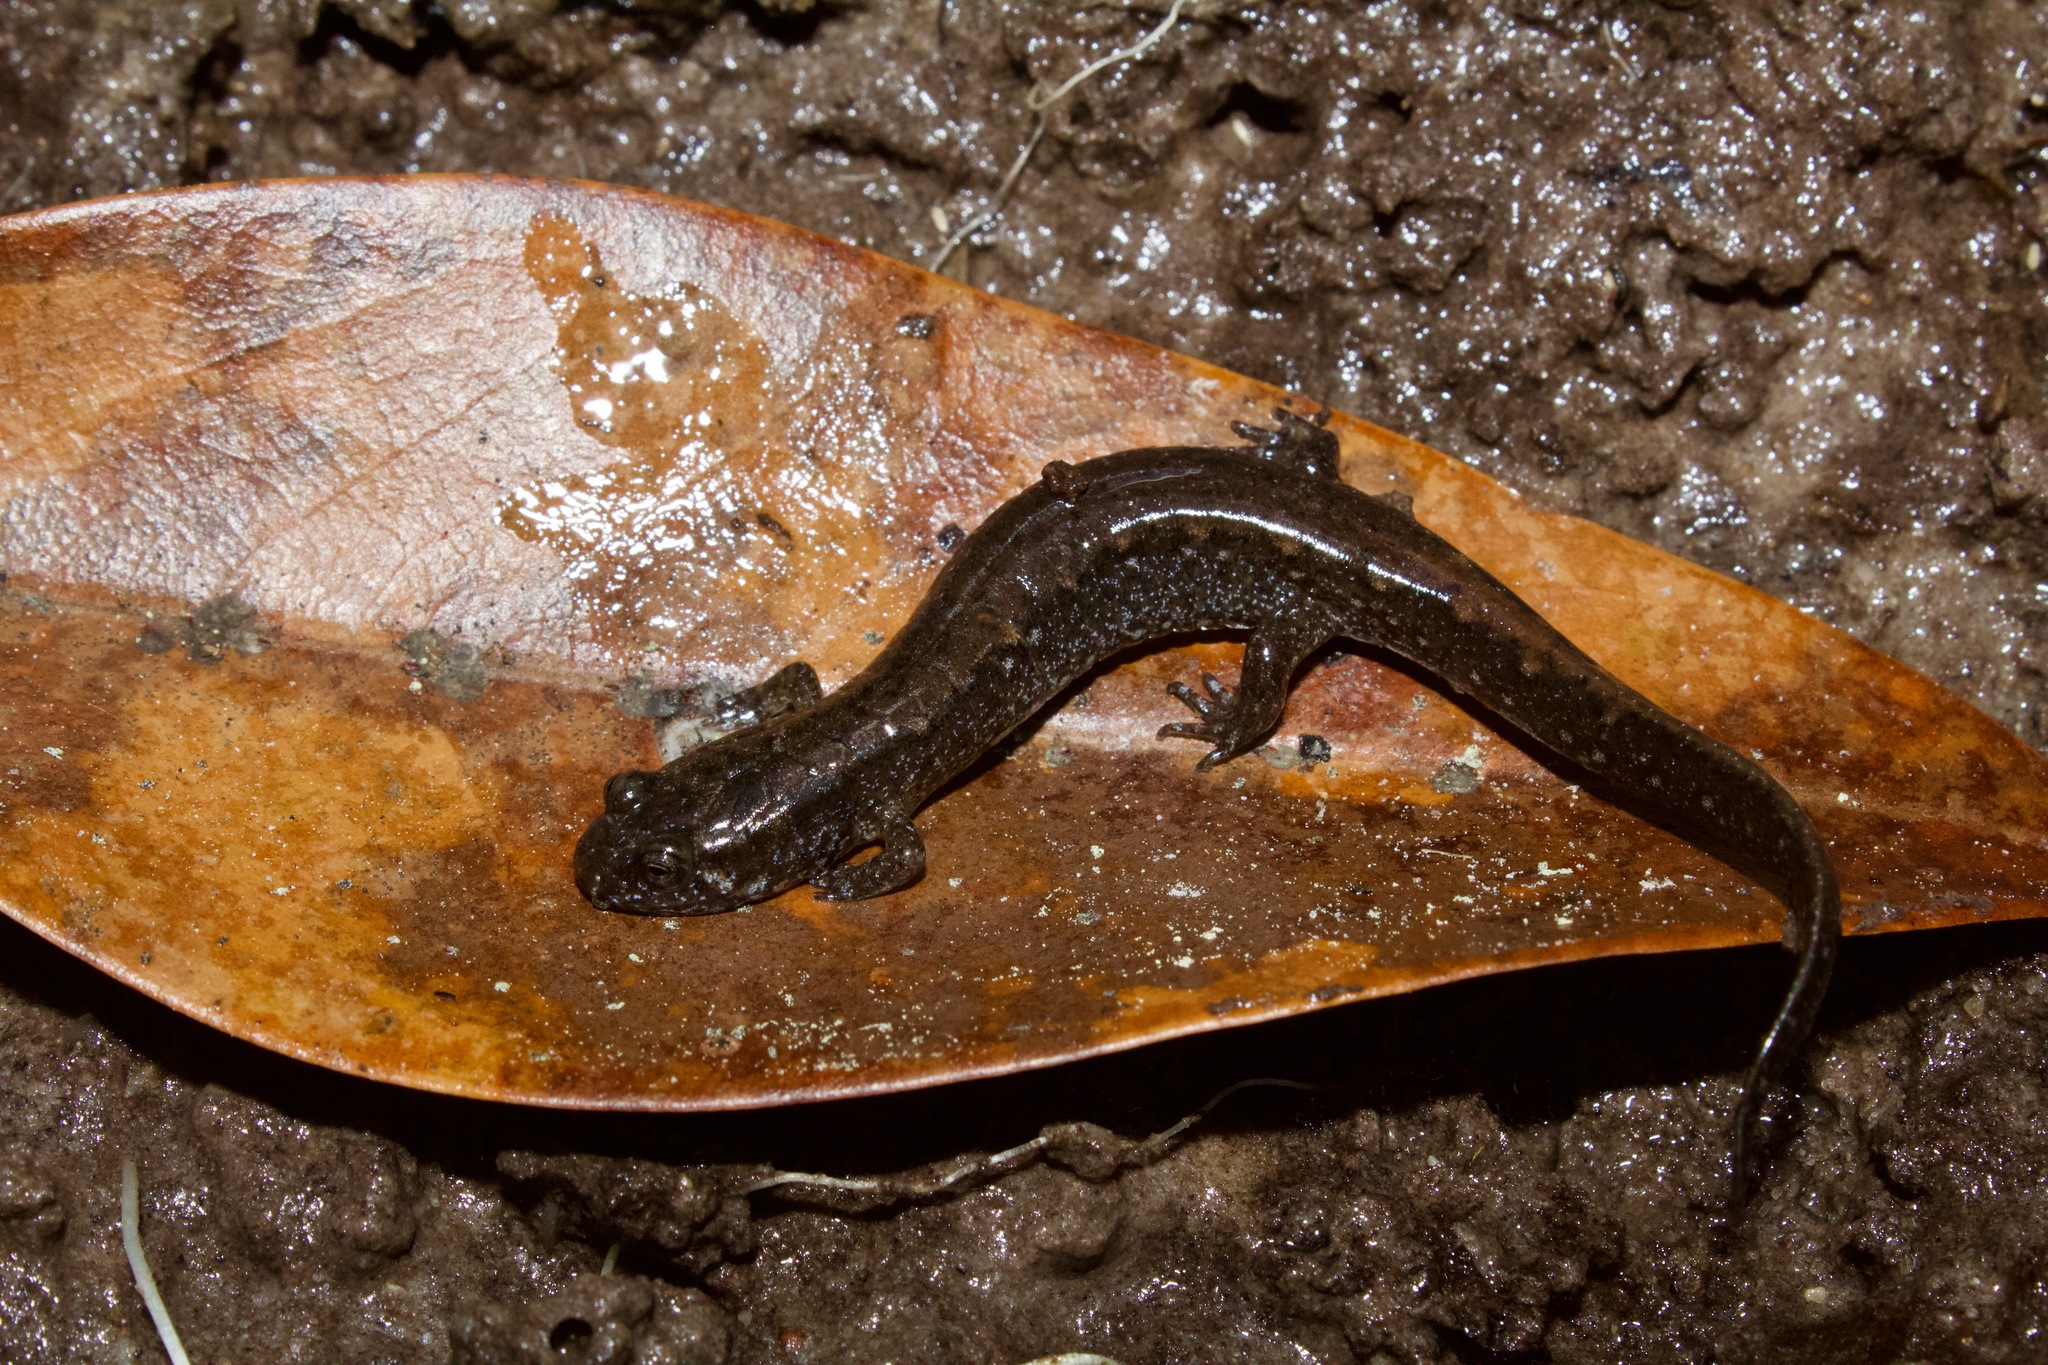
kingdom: Animalia
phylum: Chordata
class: Amphibia
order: Caudata
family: Plethodontidae
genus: Desmognathus
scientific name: Desmognathus valentinei
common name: Valentine's southern dusky salamander
